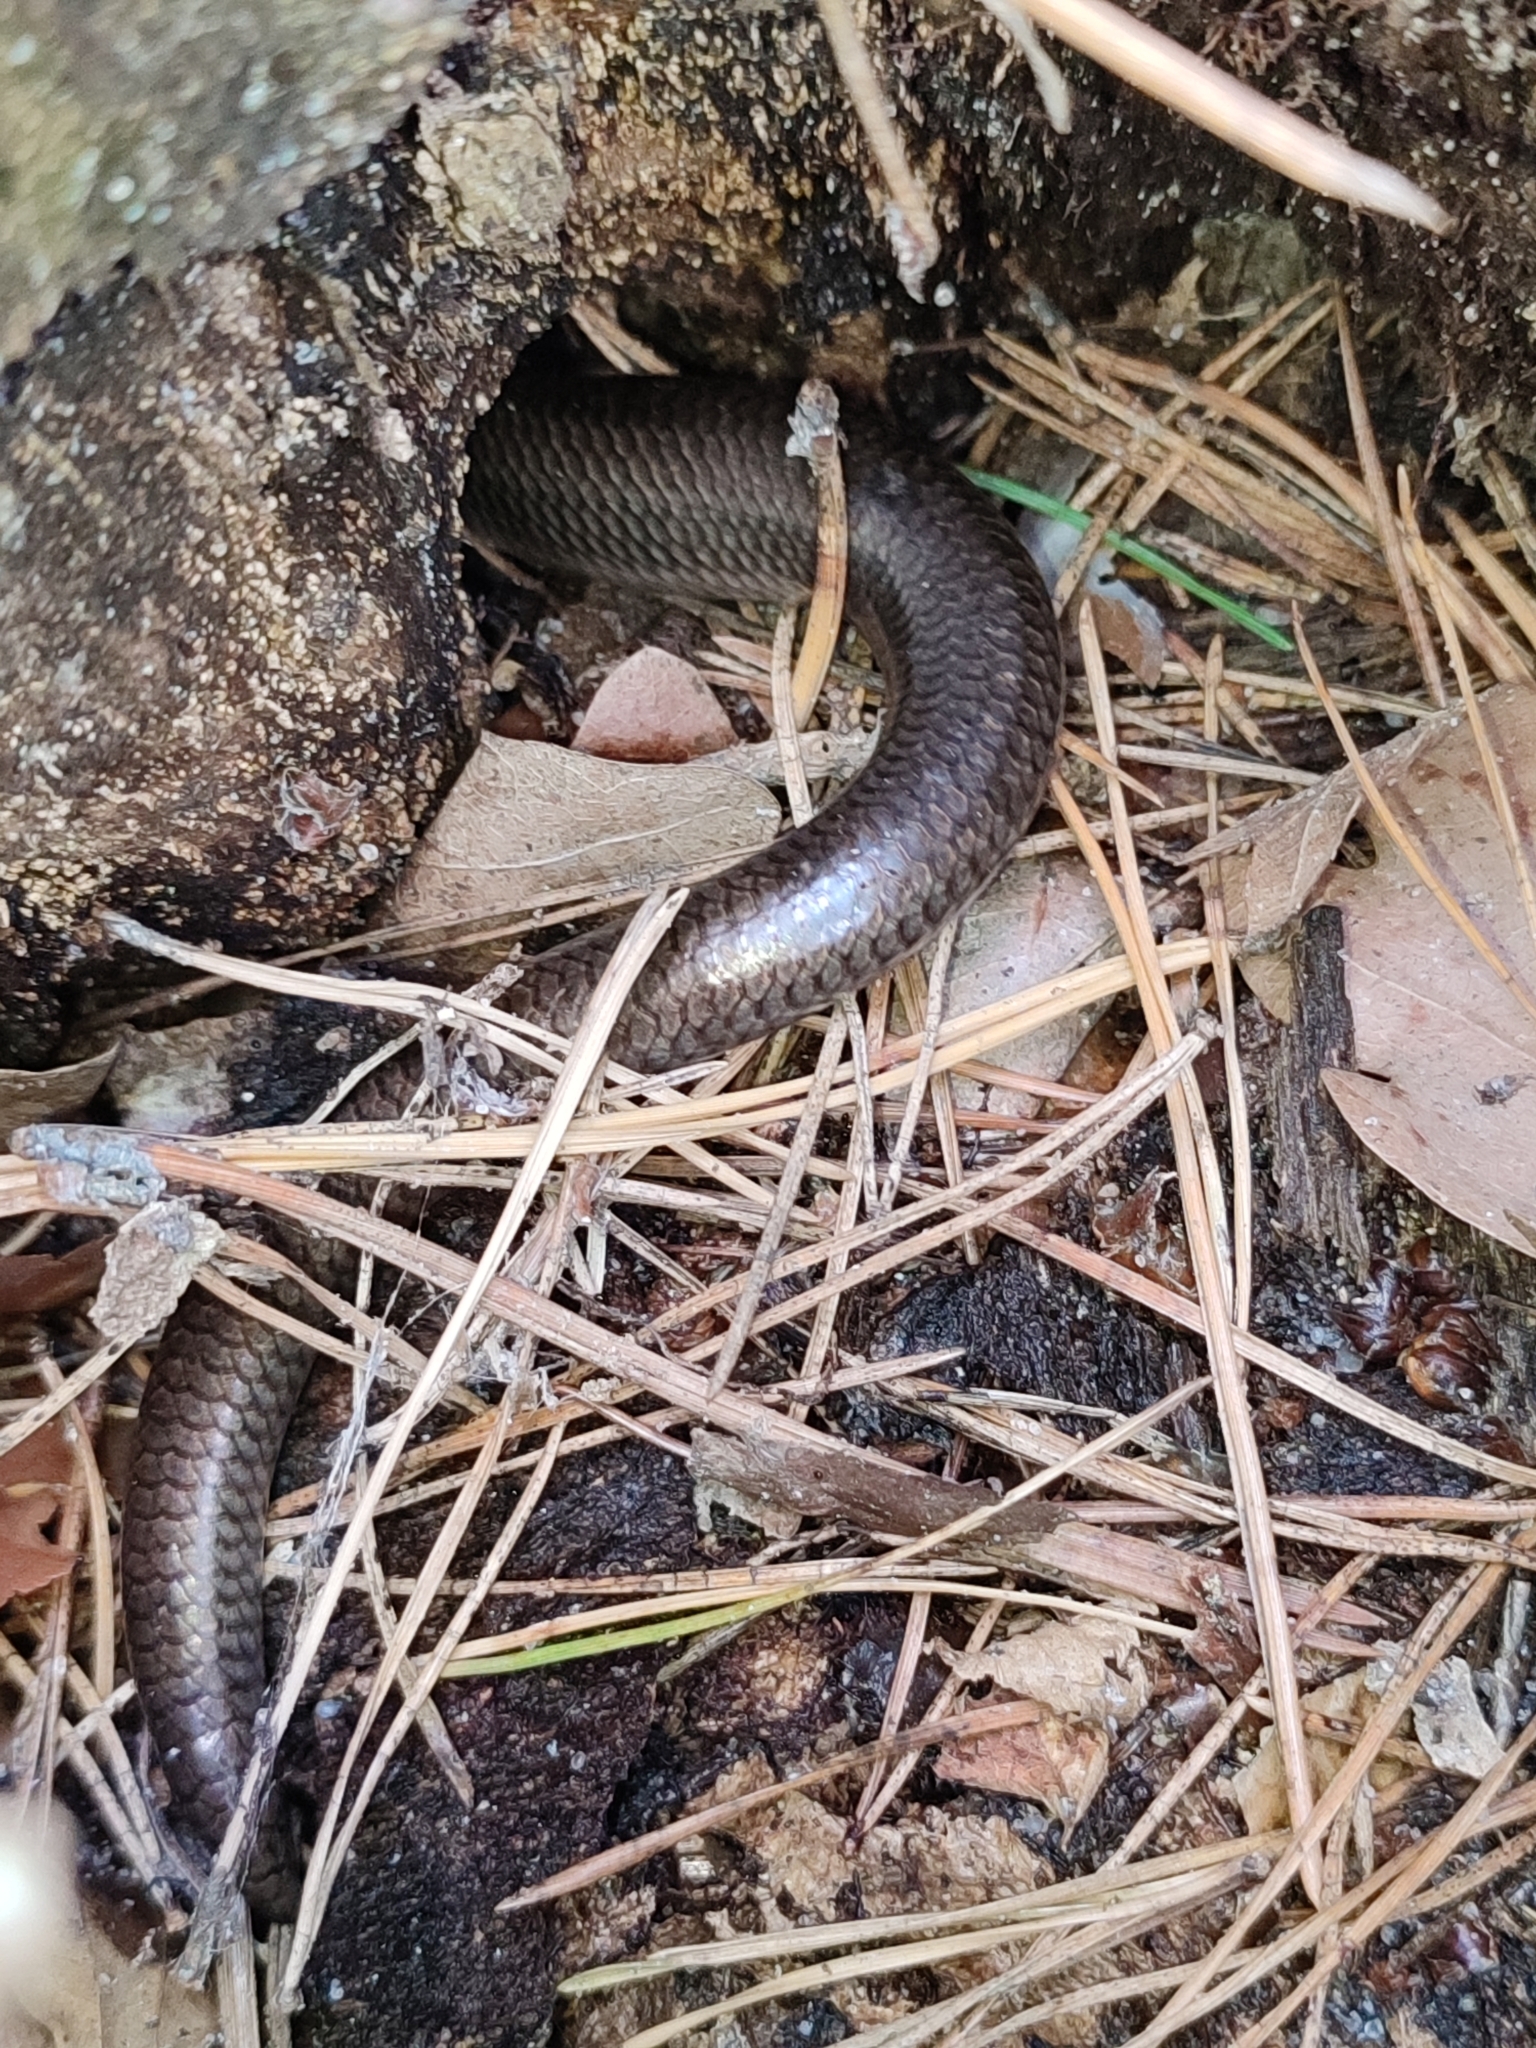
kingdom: Animalia
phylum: Chordata
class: Squamata
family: Anguidae
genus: Anguis
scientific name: Anguis colchica
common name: Slow worm
